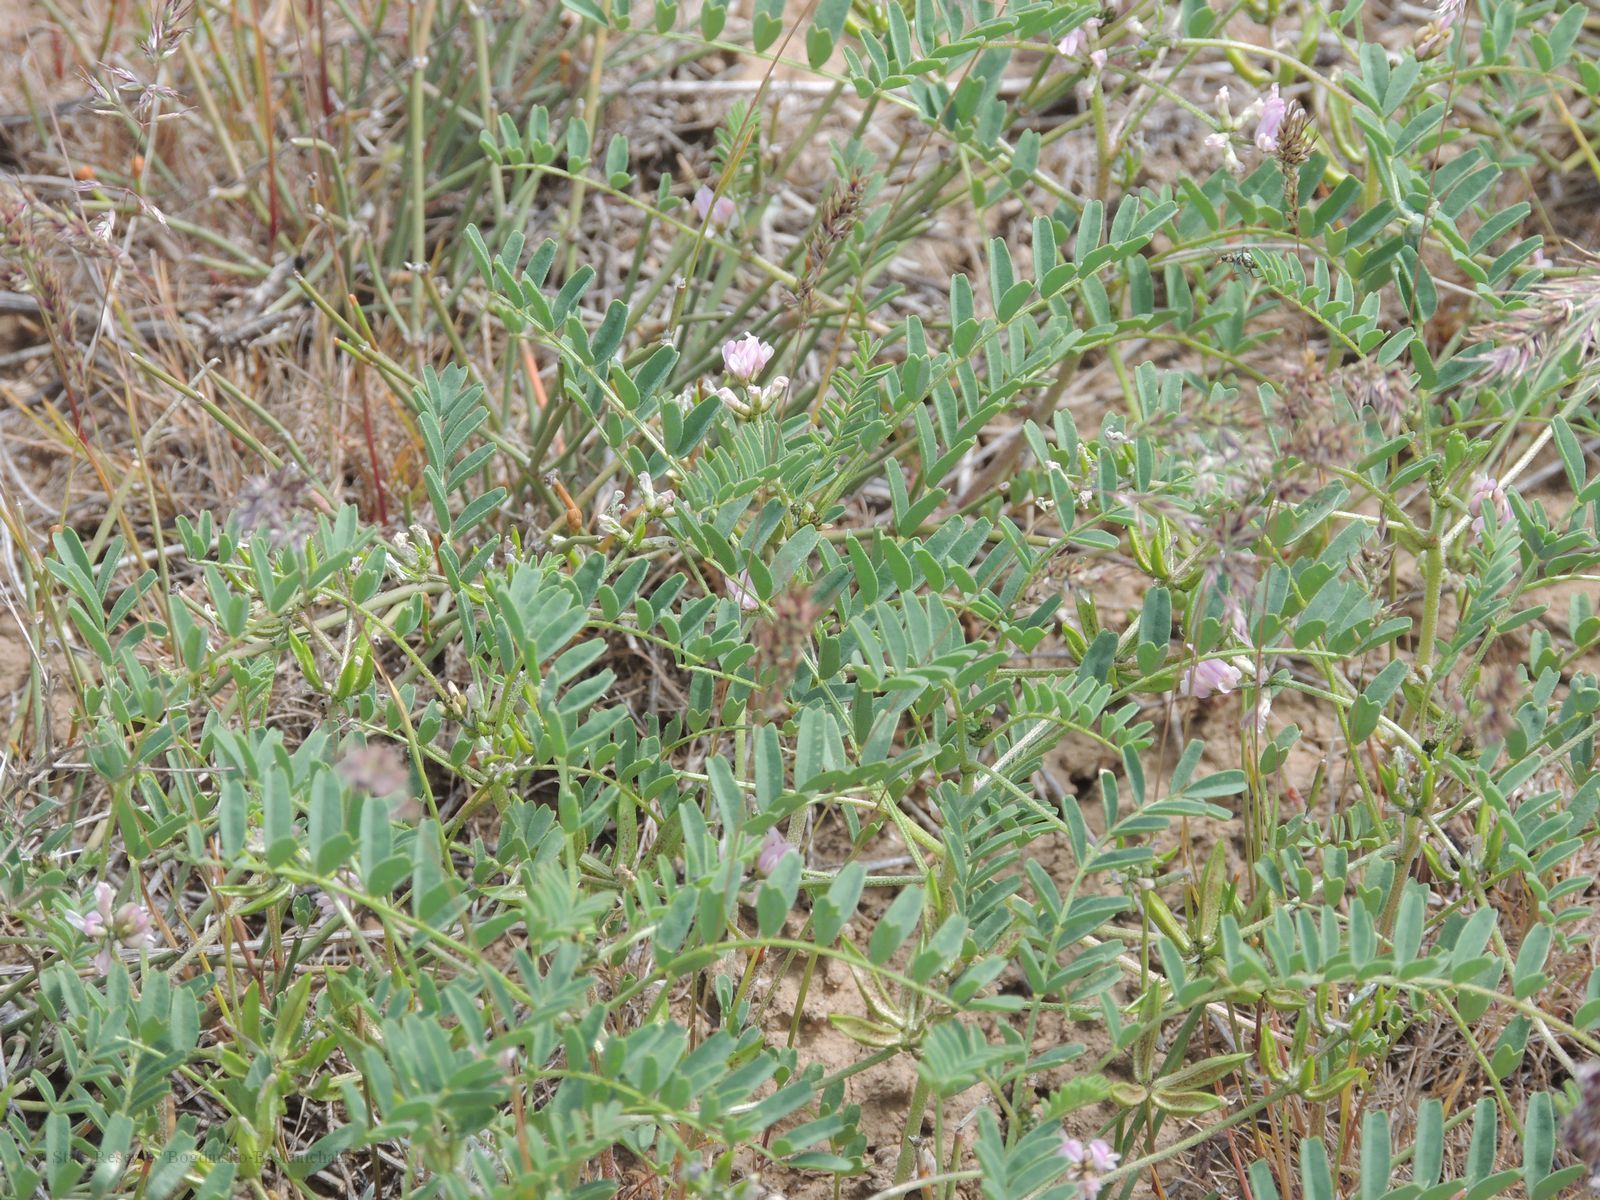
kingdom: Plantae
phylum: Tracheophyta
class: Magnoliopsida
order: Fabales
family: Fabaceae
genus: Astragalus
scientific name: Astragalus oxyglottis
